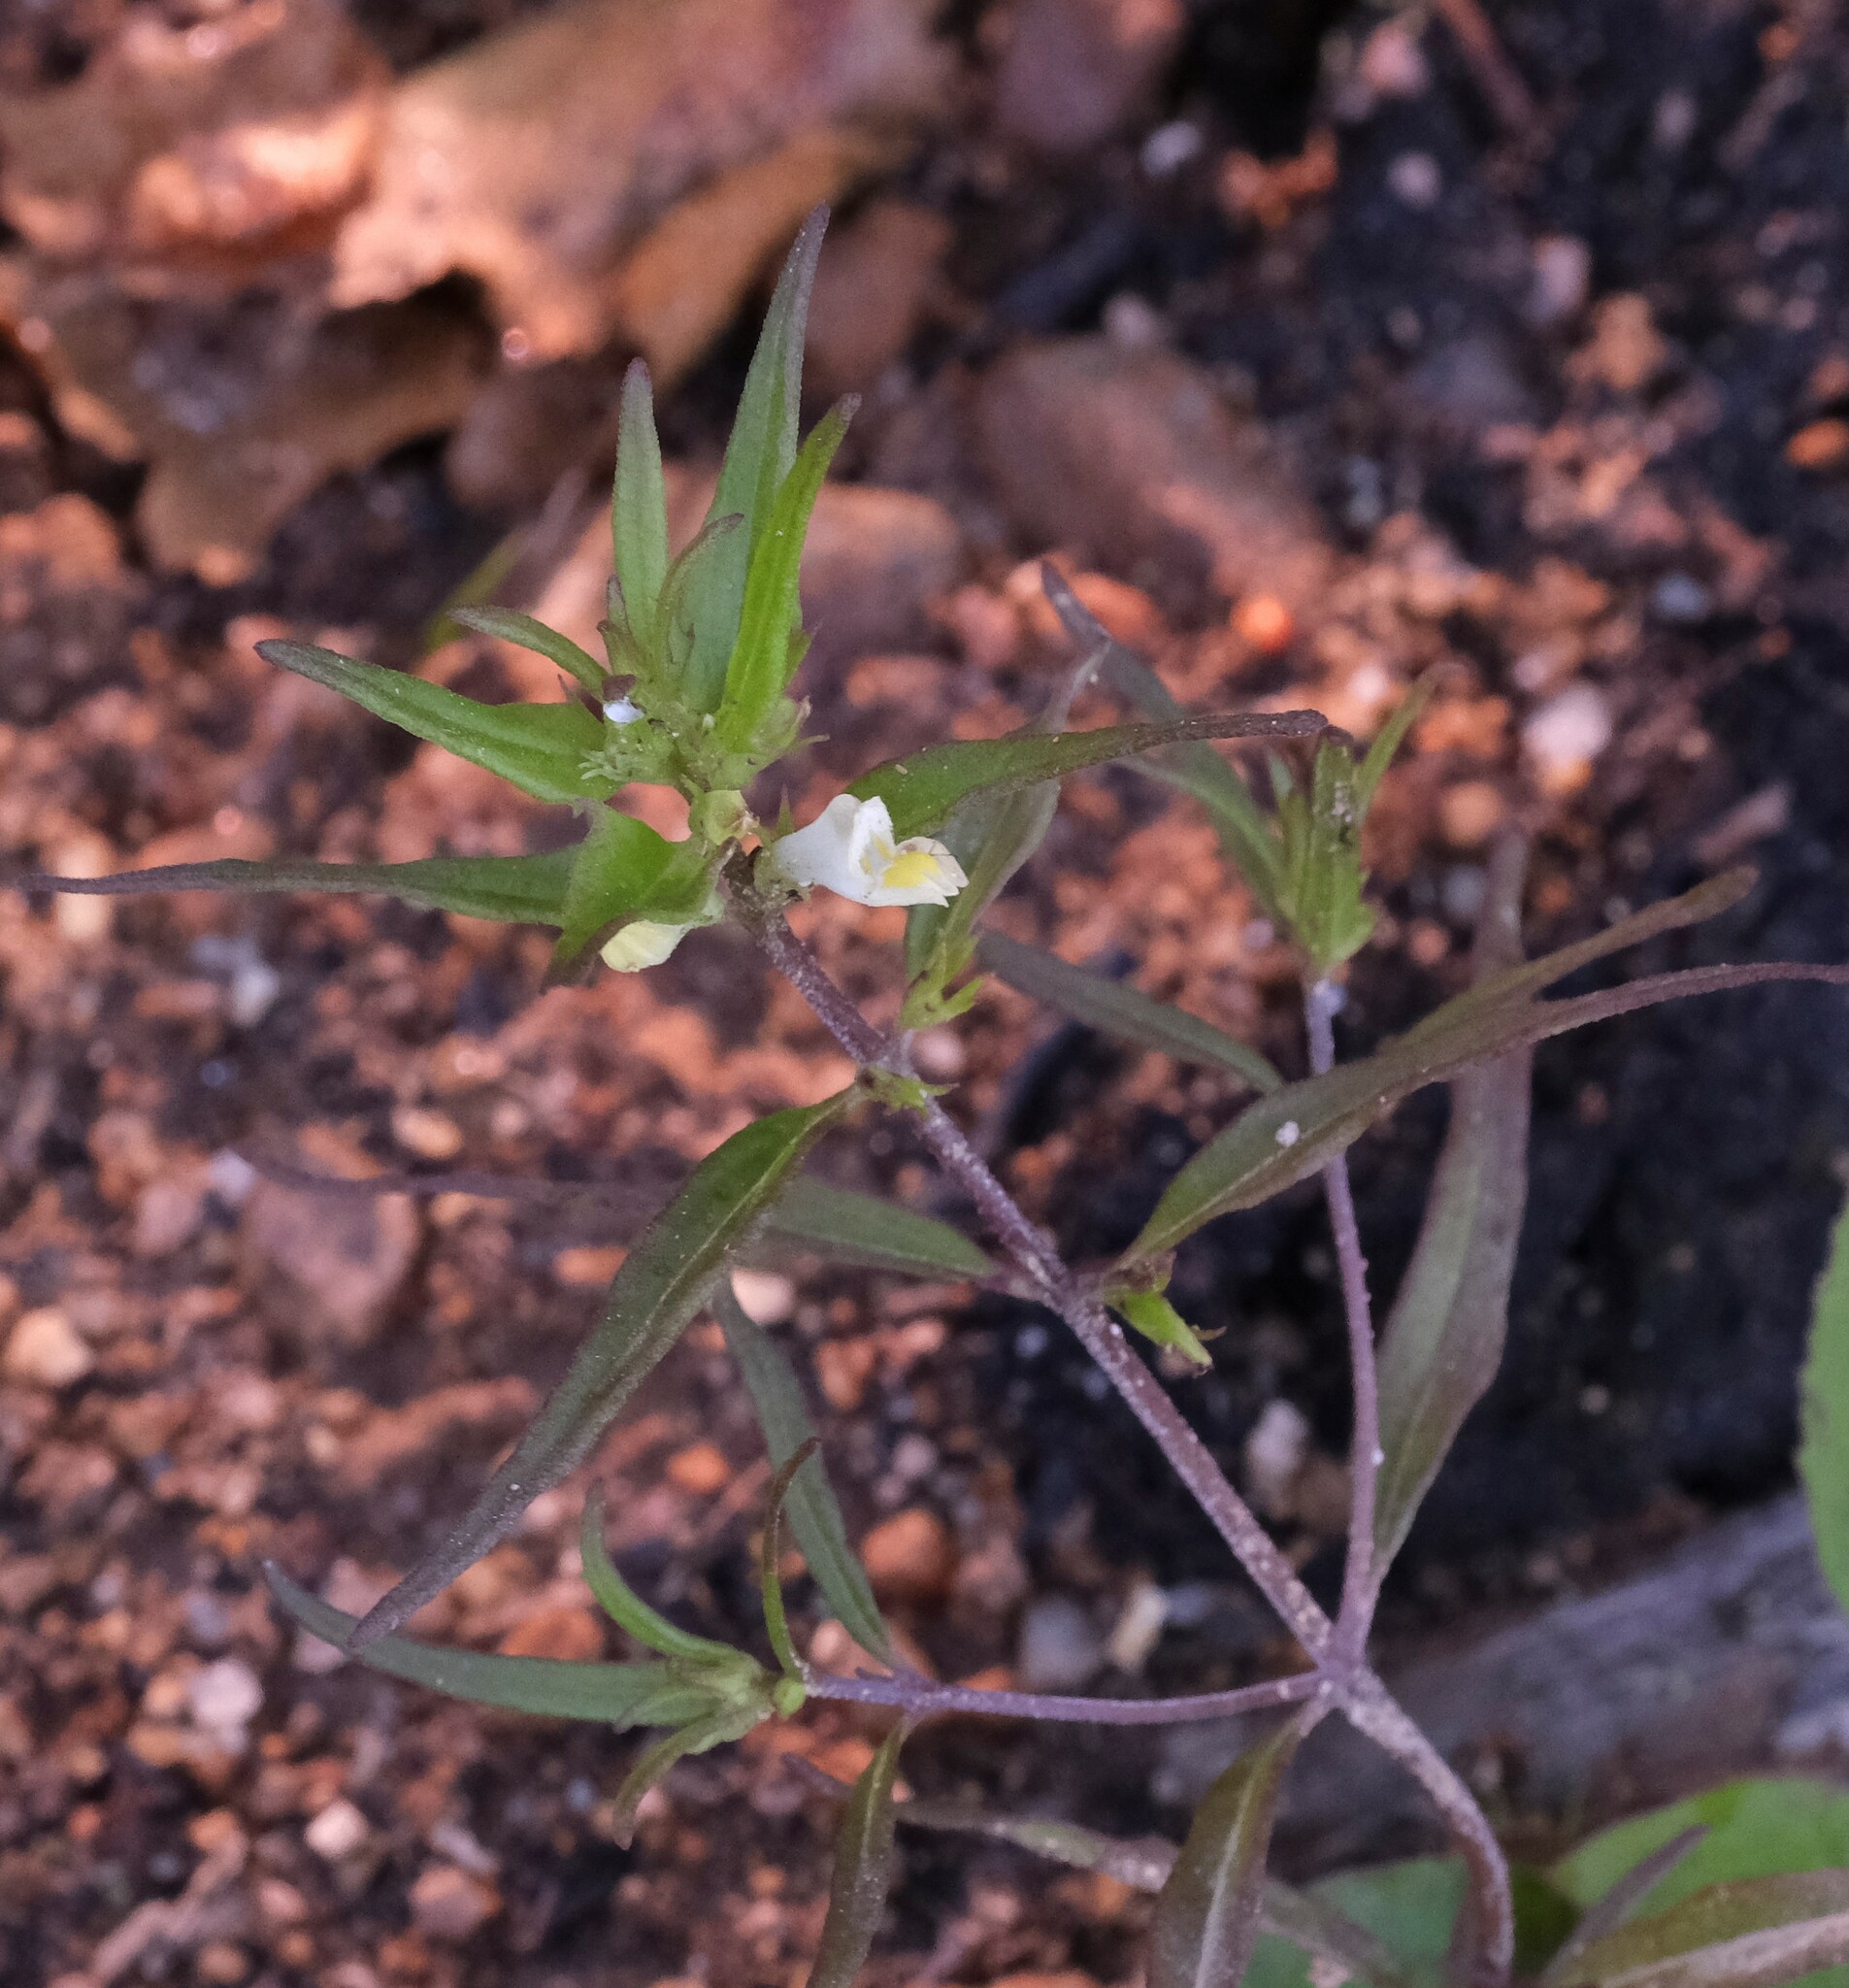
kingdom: Plantae
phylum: Tracheophyta
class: Magnoliopsida
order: Lamiales
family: Orobanchaceae
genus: Melampyrum
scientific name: Melampyrum lineare
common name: American cow-wheat
